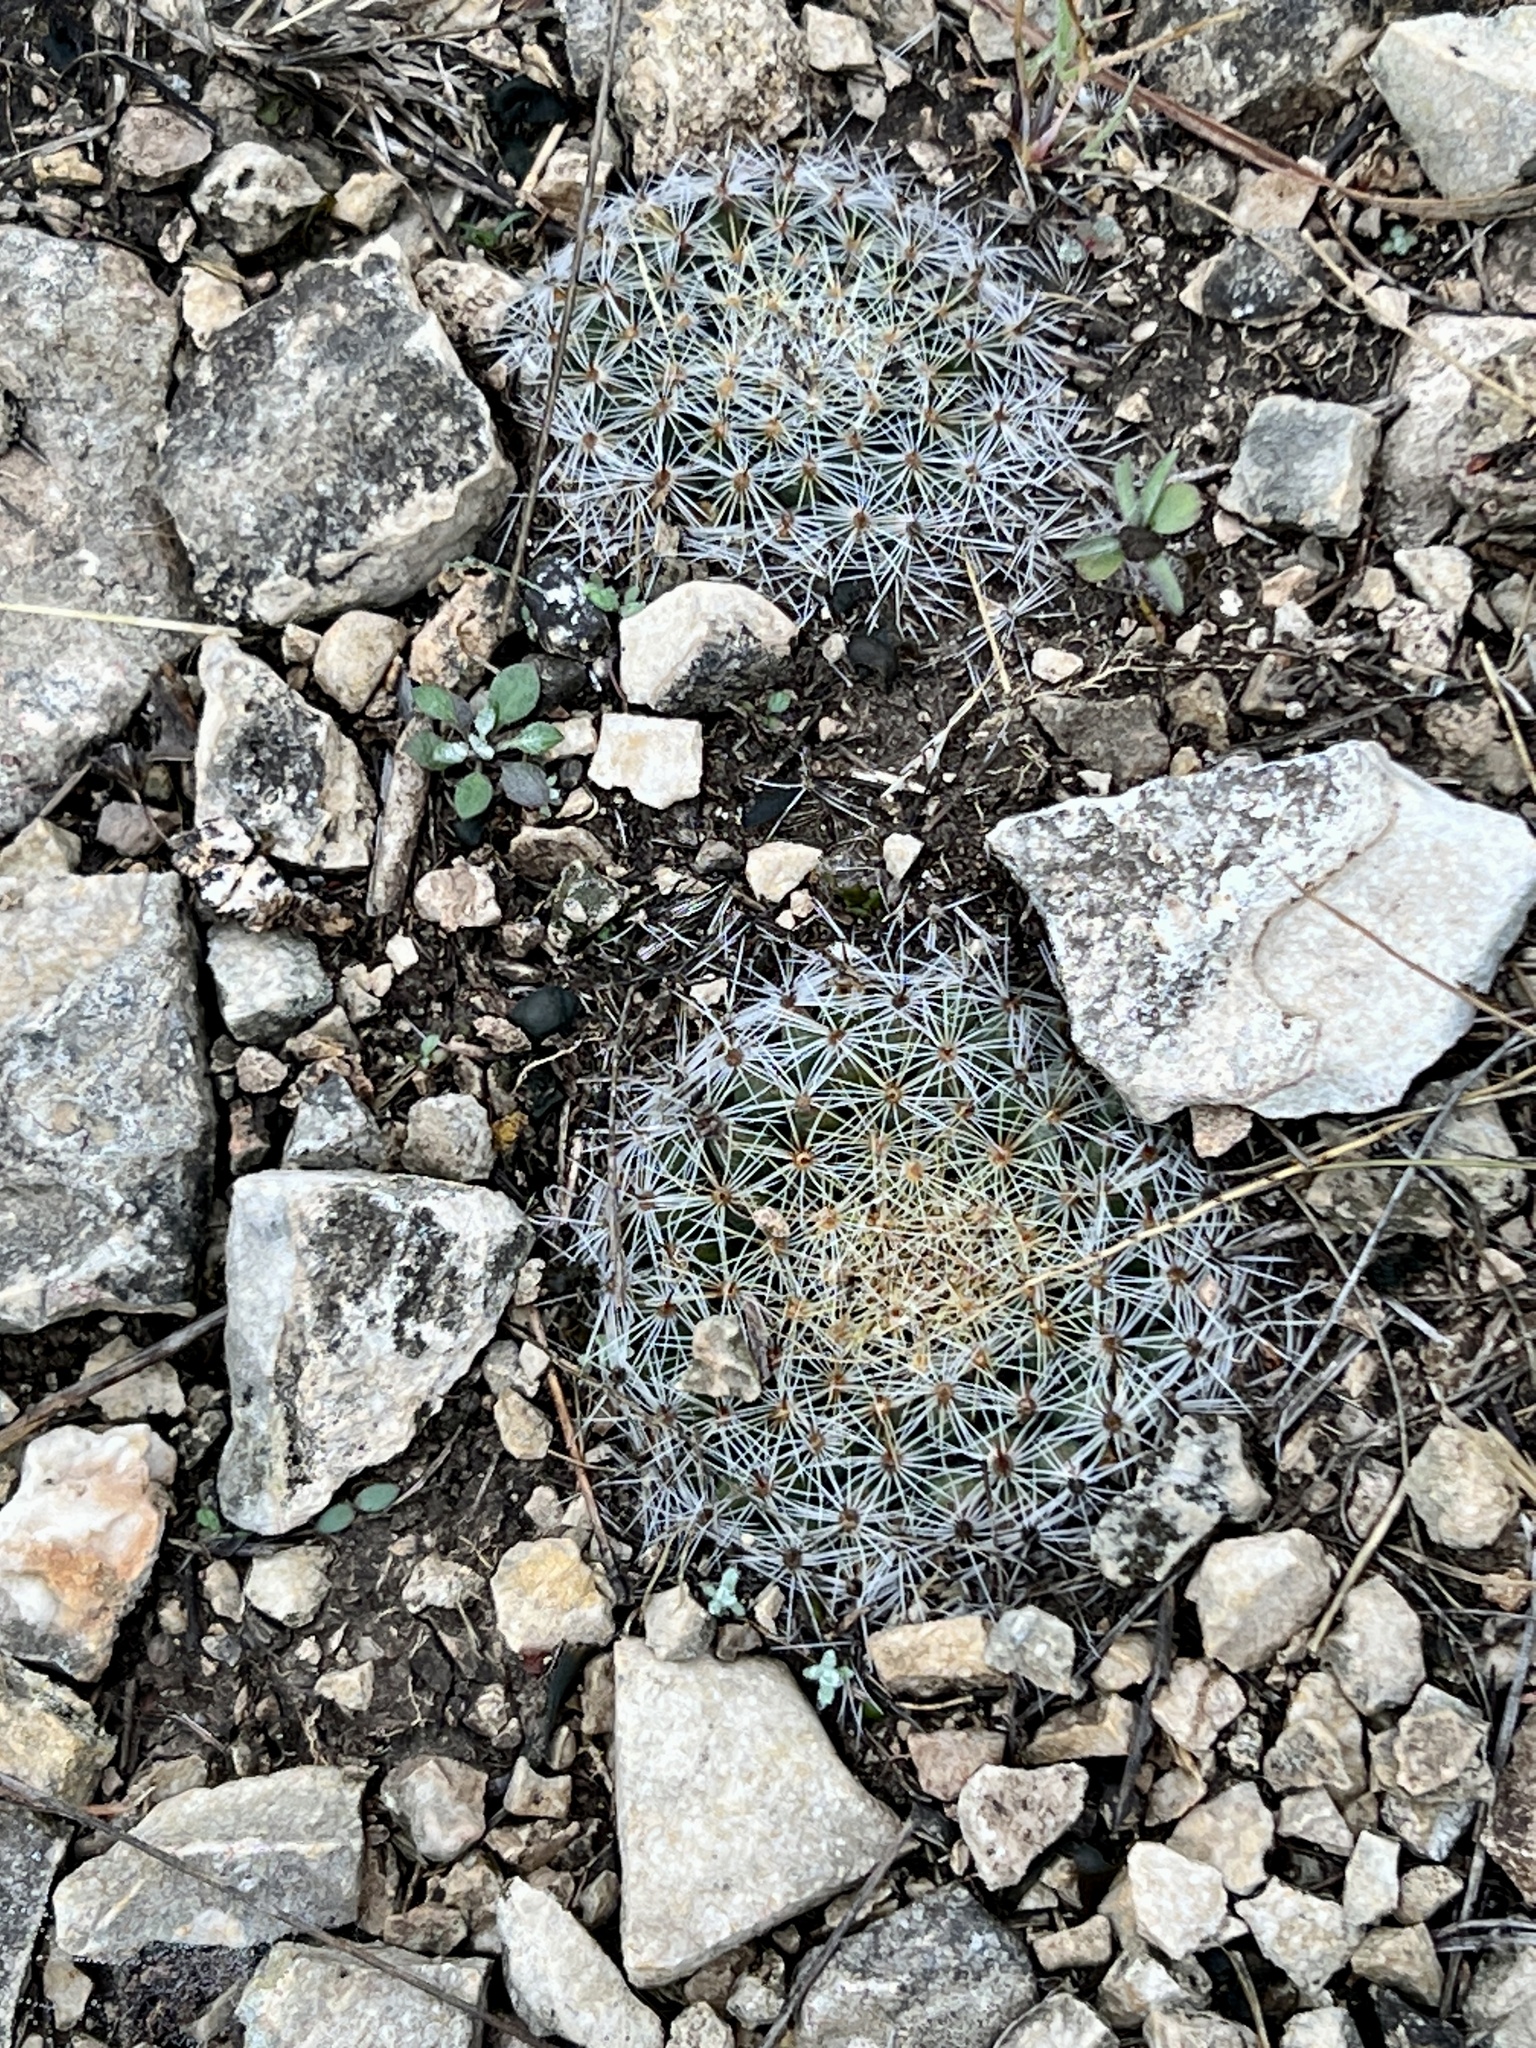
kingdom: Plantae
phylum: Tracheophyta
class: Magnoliopsida
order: Caryophyllales
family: Cactaceae
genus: Mammillaria
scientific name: Mammillaria heyderi
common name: Little nipple cactus
